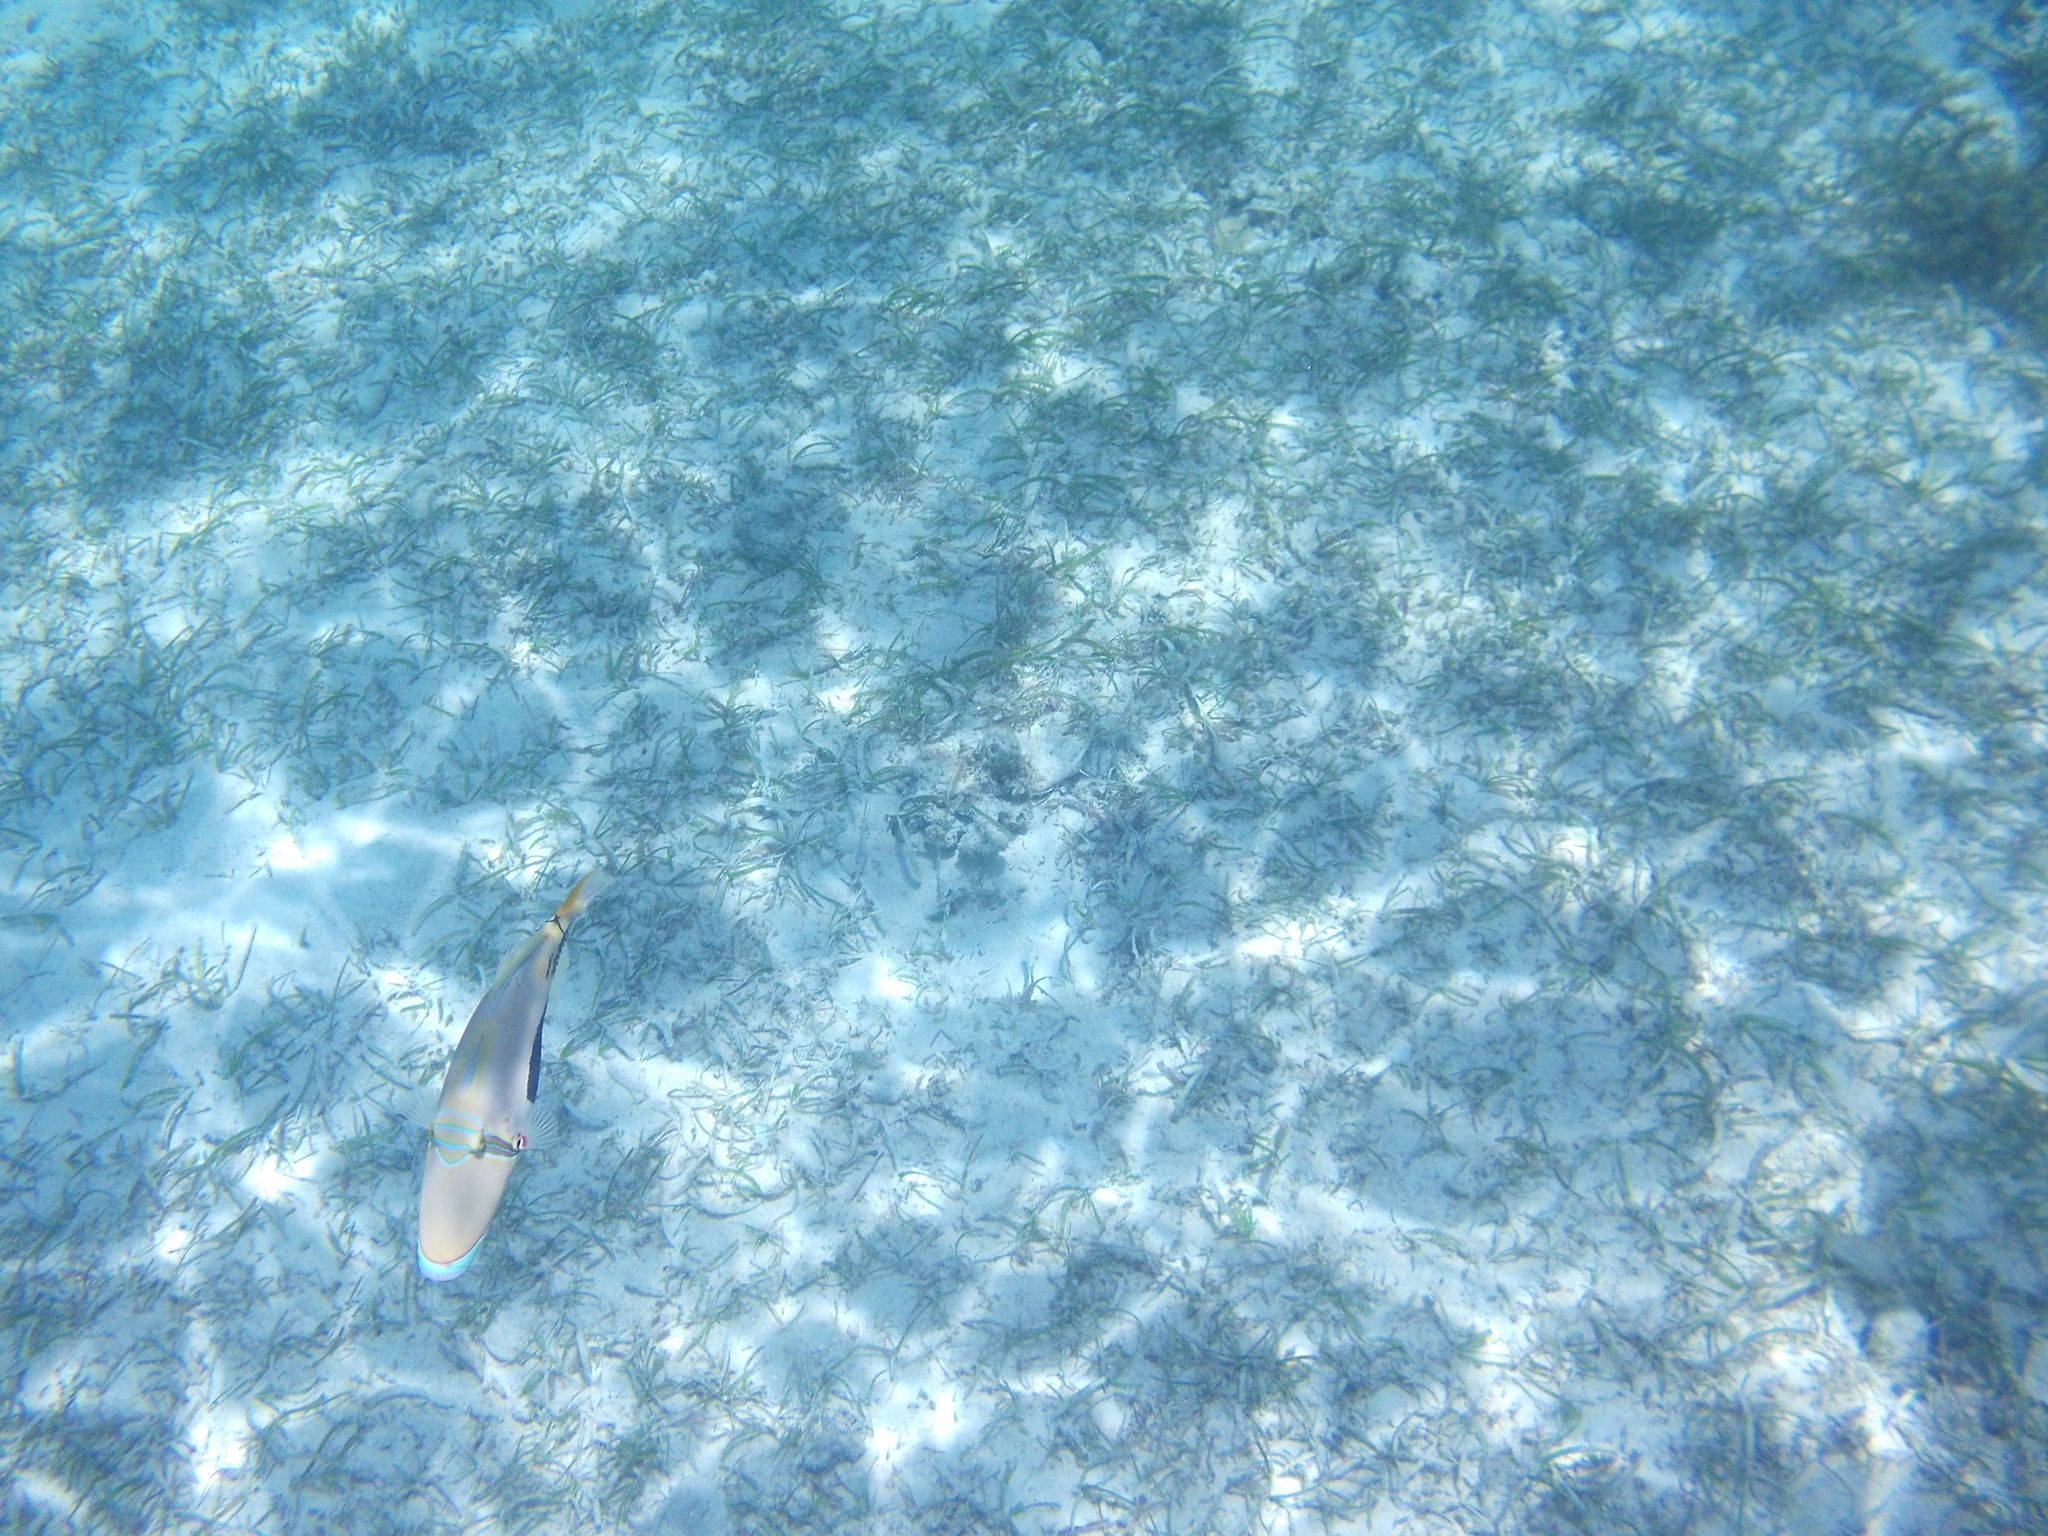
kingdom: Animalia
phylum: Chordata
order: Tetraodontiformes
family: Balistidae
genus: Rhinecanthus
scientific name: Rhinecanthus verrucosus
